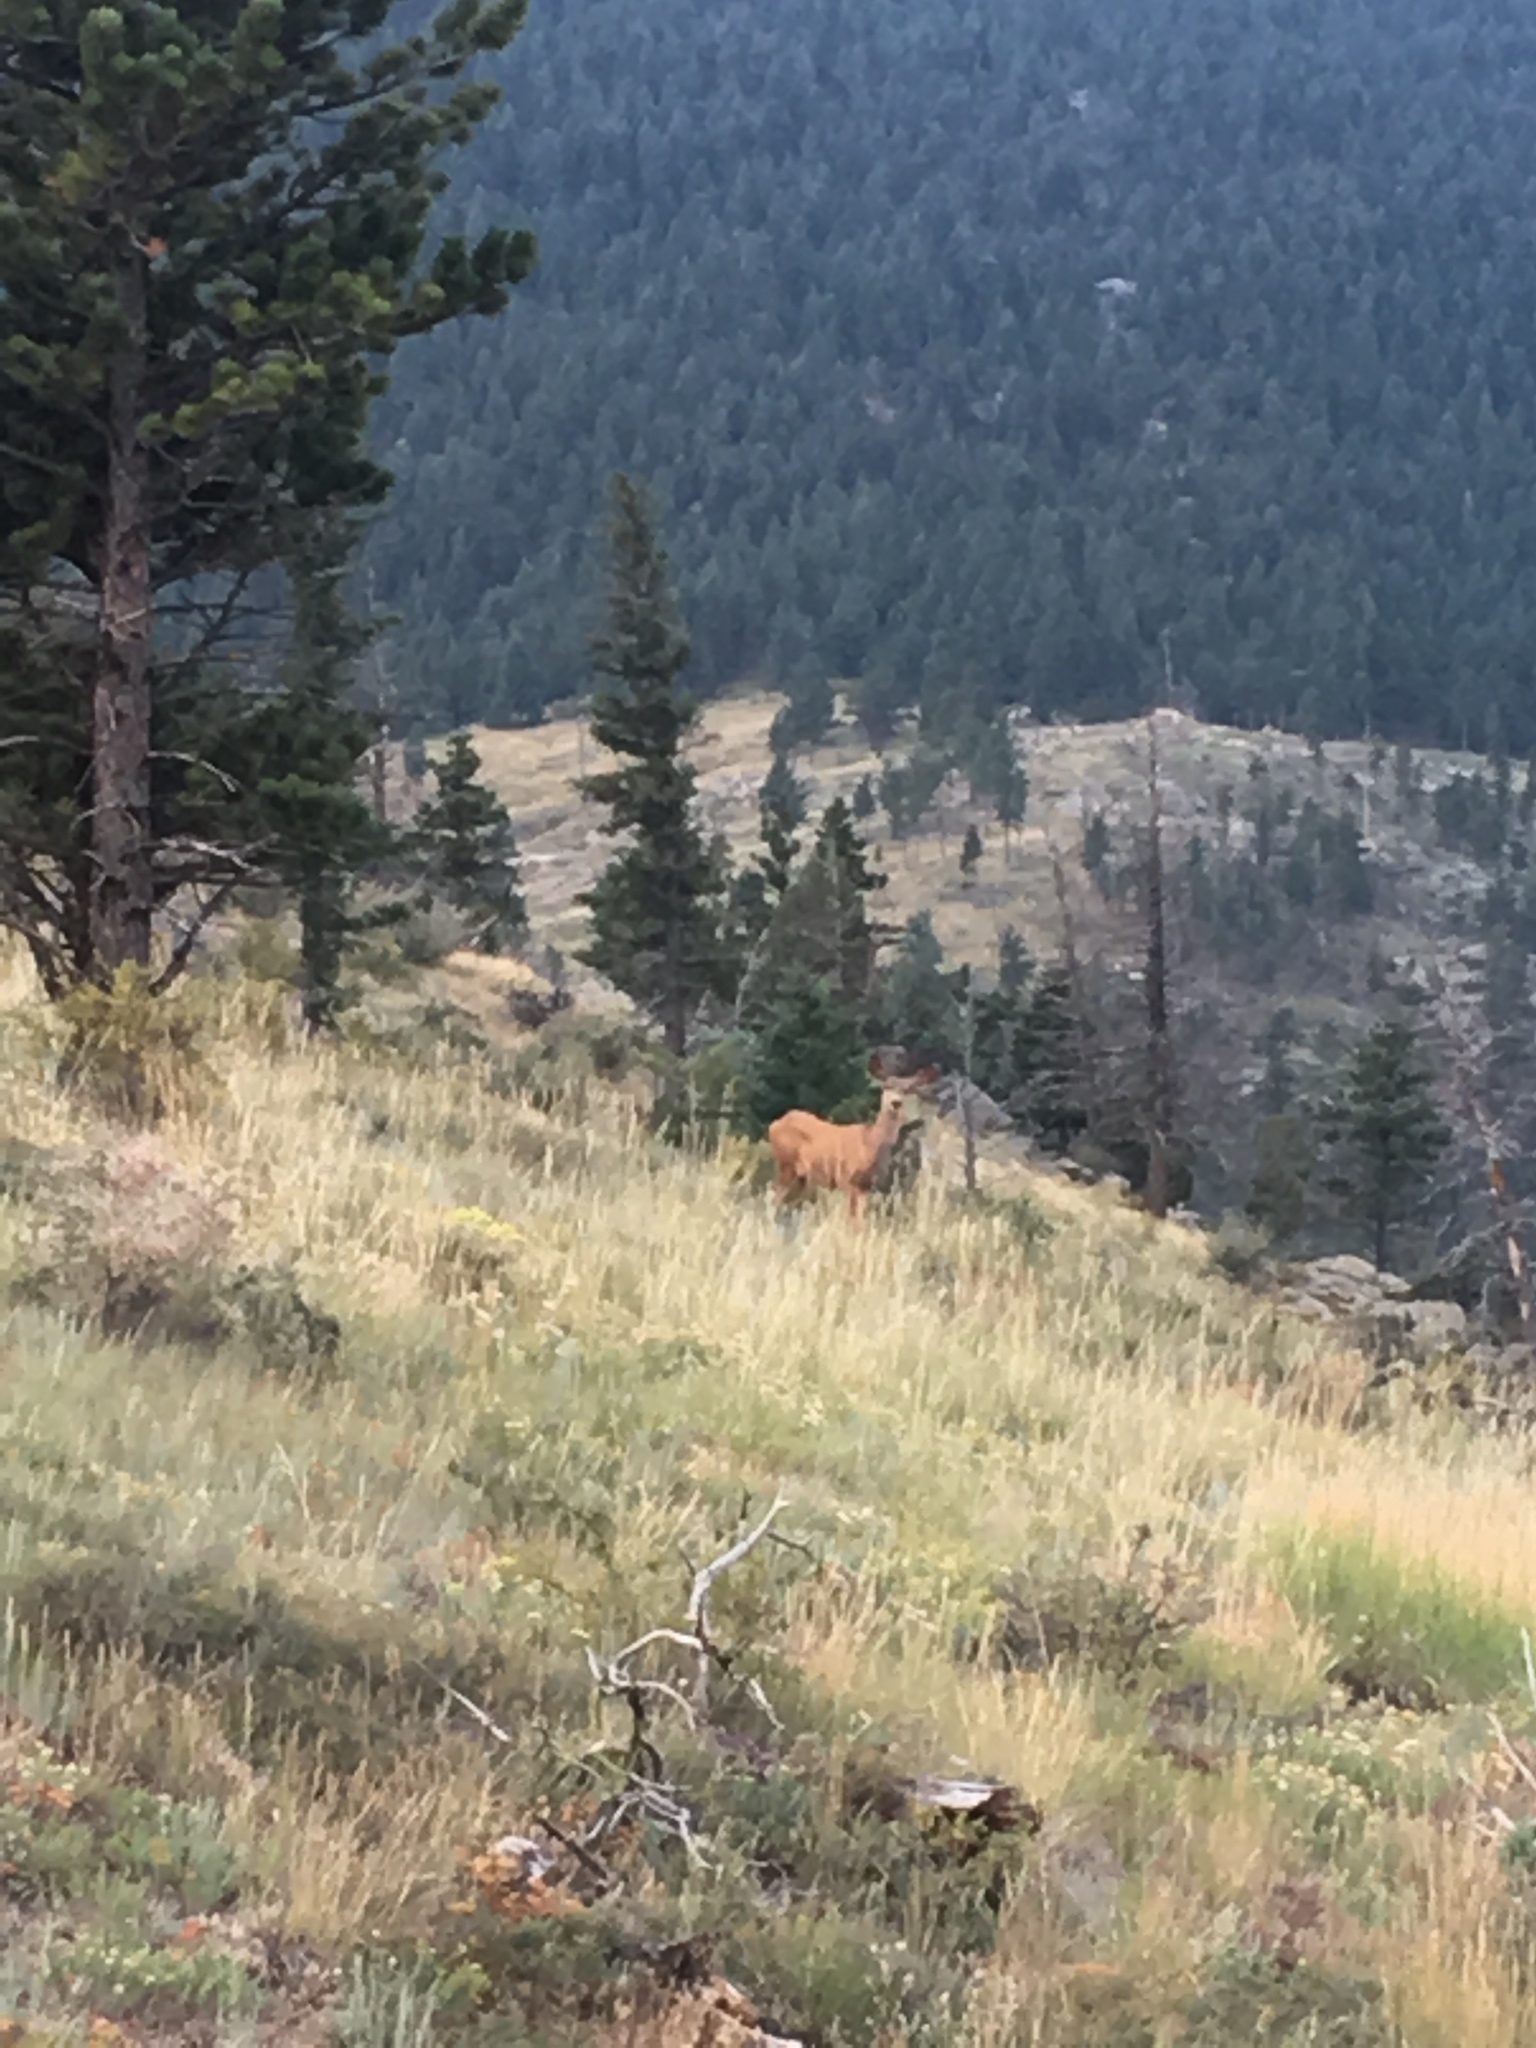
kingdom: Animalia
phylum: Chordata
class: Mammalia
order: Artiodactyla
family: Cervidae
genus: Odocoileus
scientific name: Odocoileus hemionus
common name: Mule deer
